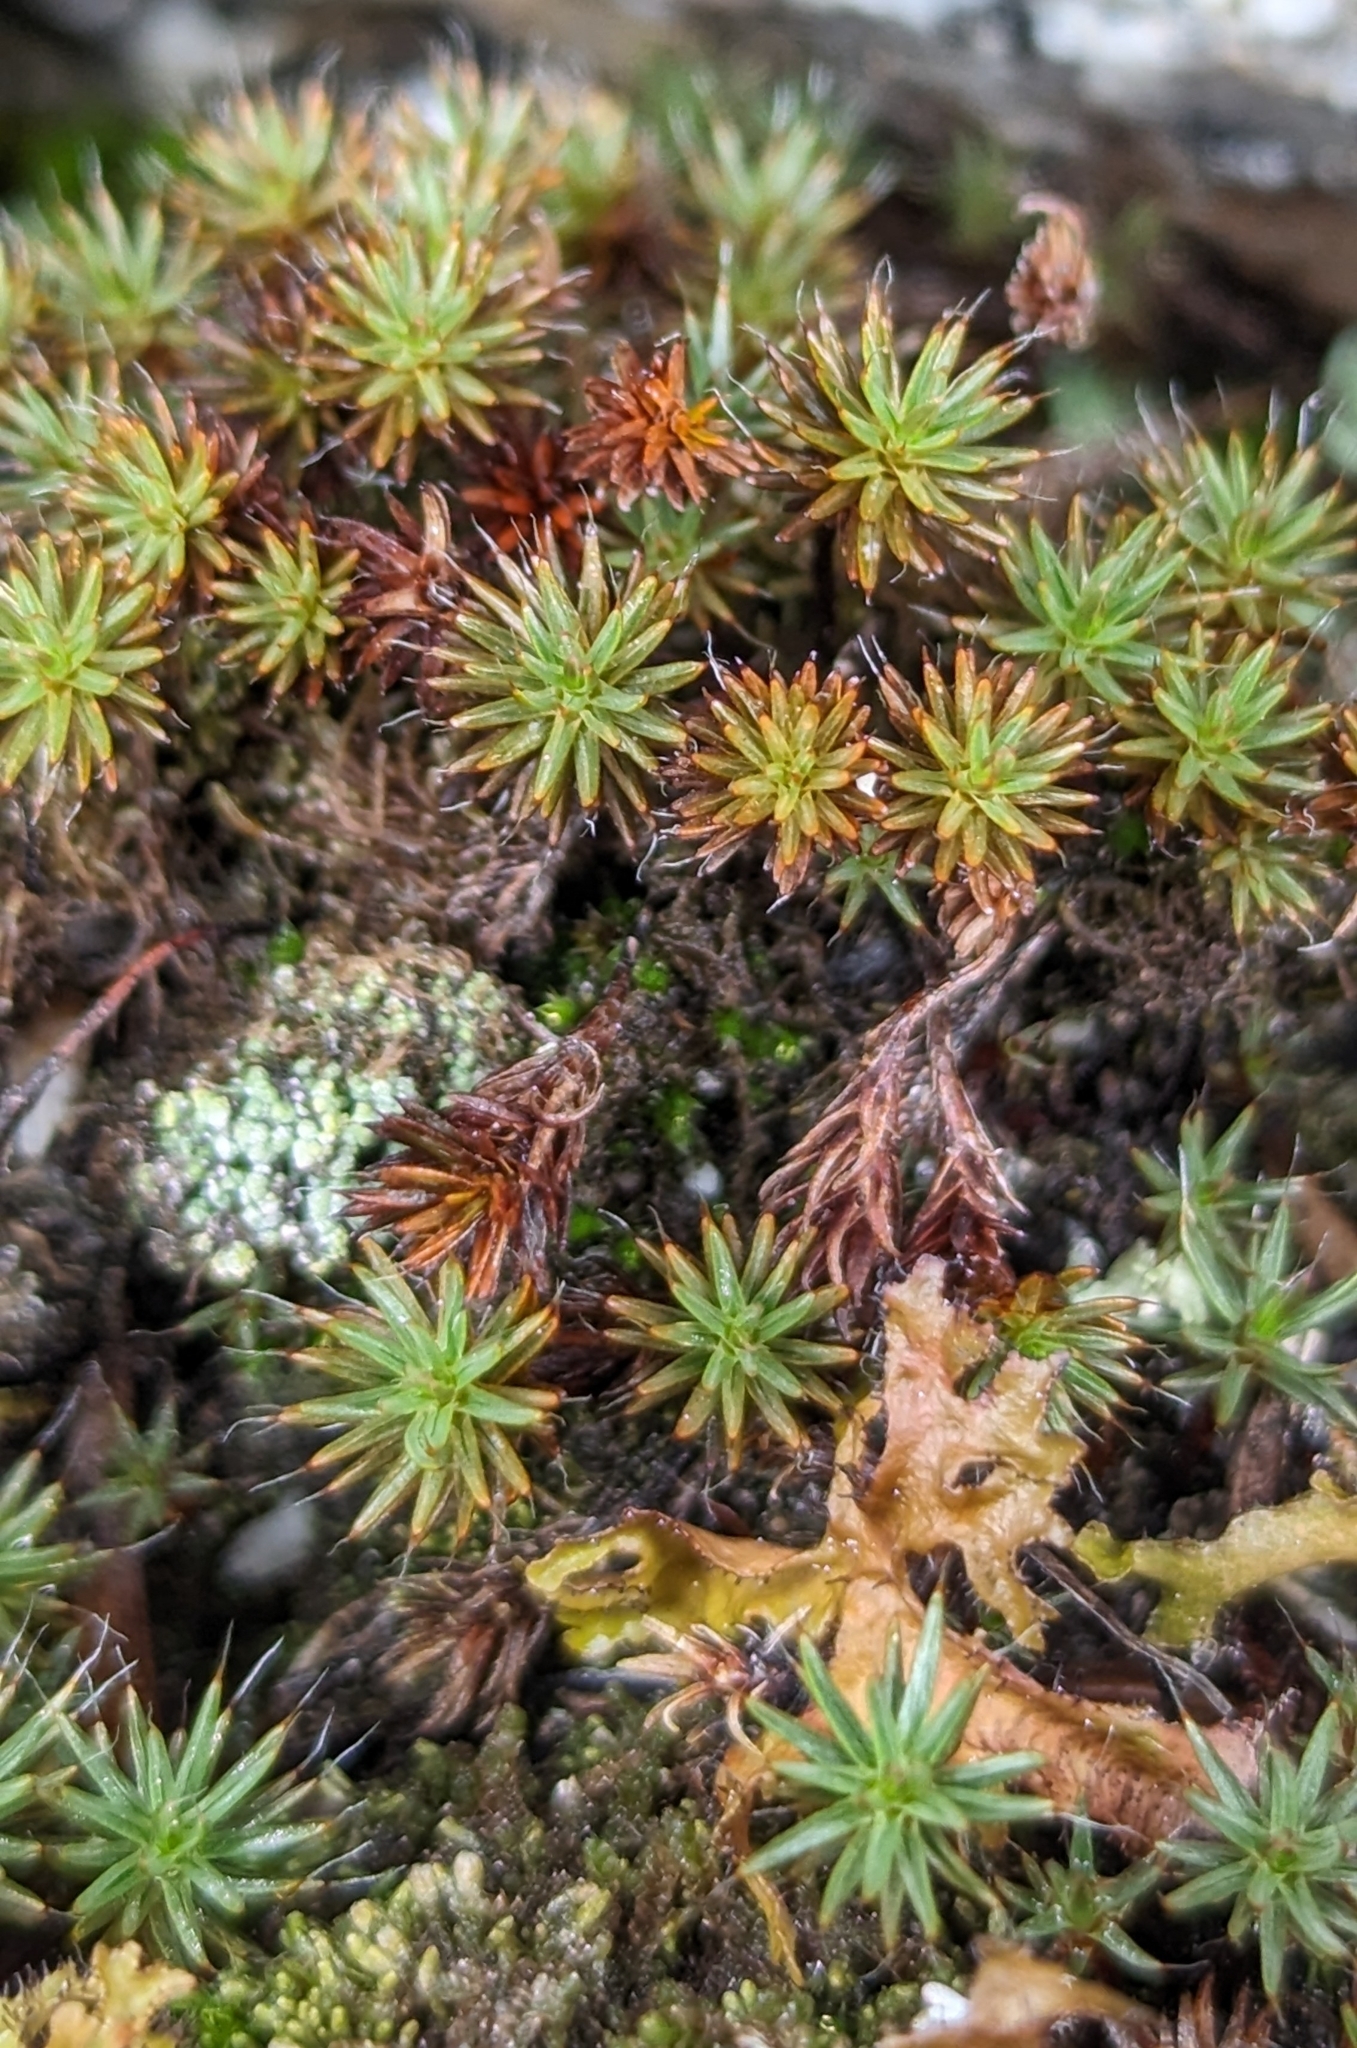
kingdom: Plantae
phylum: Bryophyta
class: Polytrichopsida
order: Polytrichales
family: Polytrichaceae
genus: Polytrichum
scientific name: Polytrichum piliferum
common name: Bristly haircap
